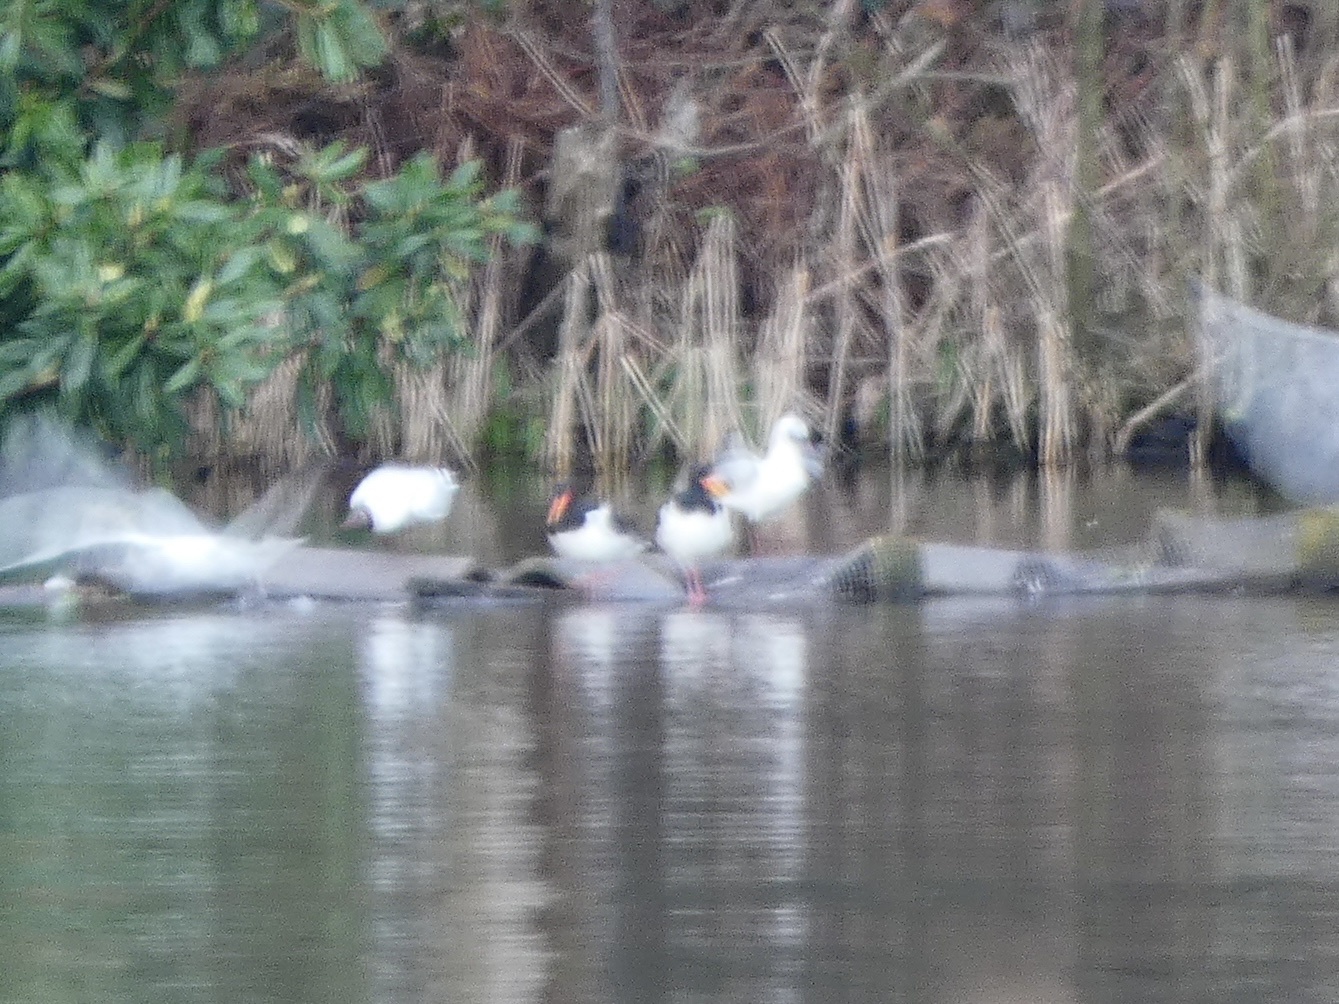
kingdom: Animalia
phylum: Chordata
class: Aves
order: Charadriiformes
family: Haematopodidae
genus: Haematopus
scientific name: Haematopus ostralegus
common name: Eurasian oystercatcher
